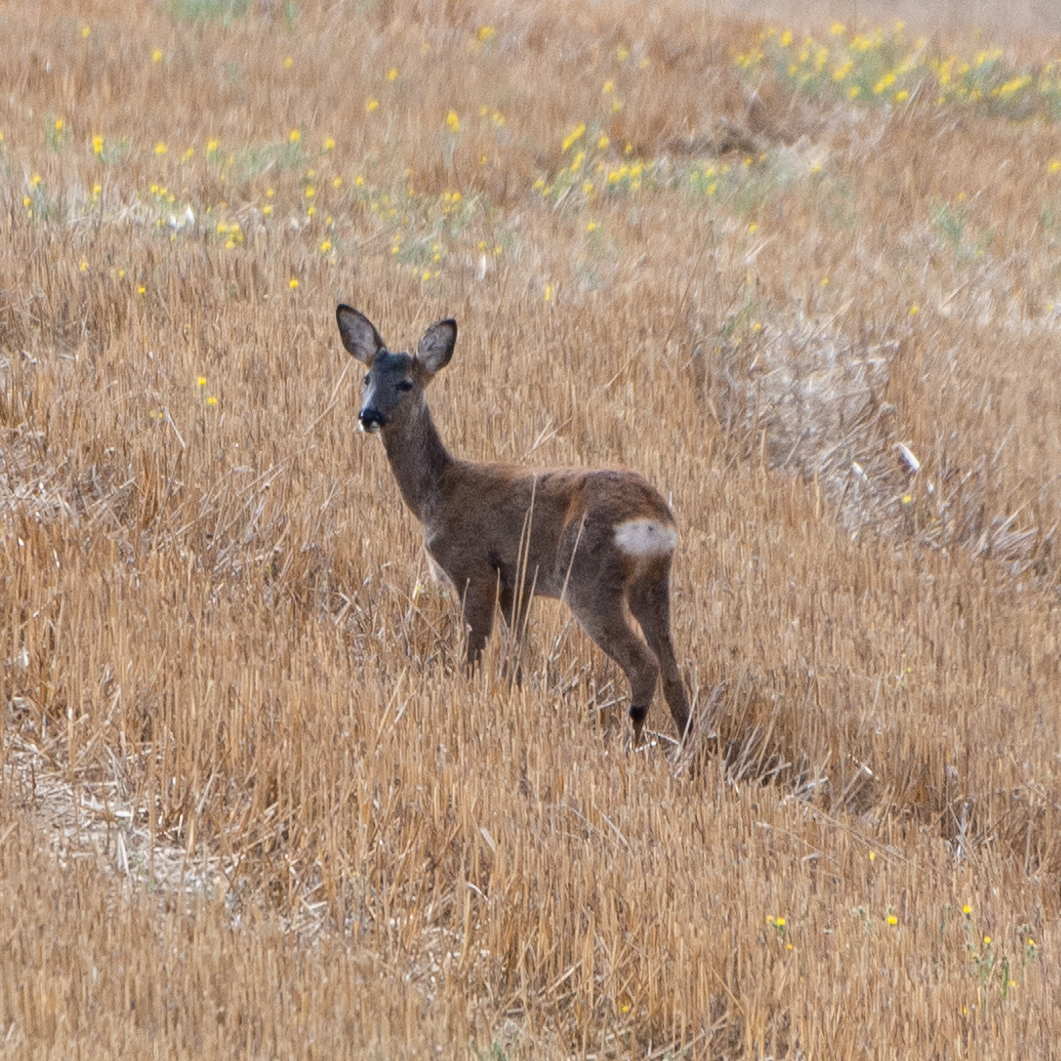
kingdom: Animalia
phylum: Chordata
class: Mammalia
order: Artiodactyla
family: Cervidae
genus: Capreolus
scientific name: Capreolus capreolus
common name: Western roe deer
